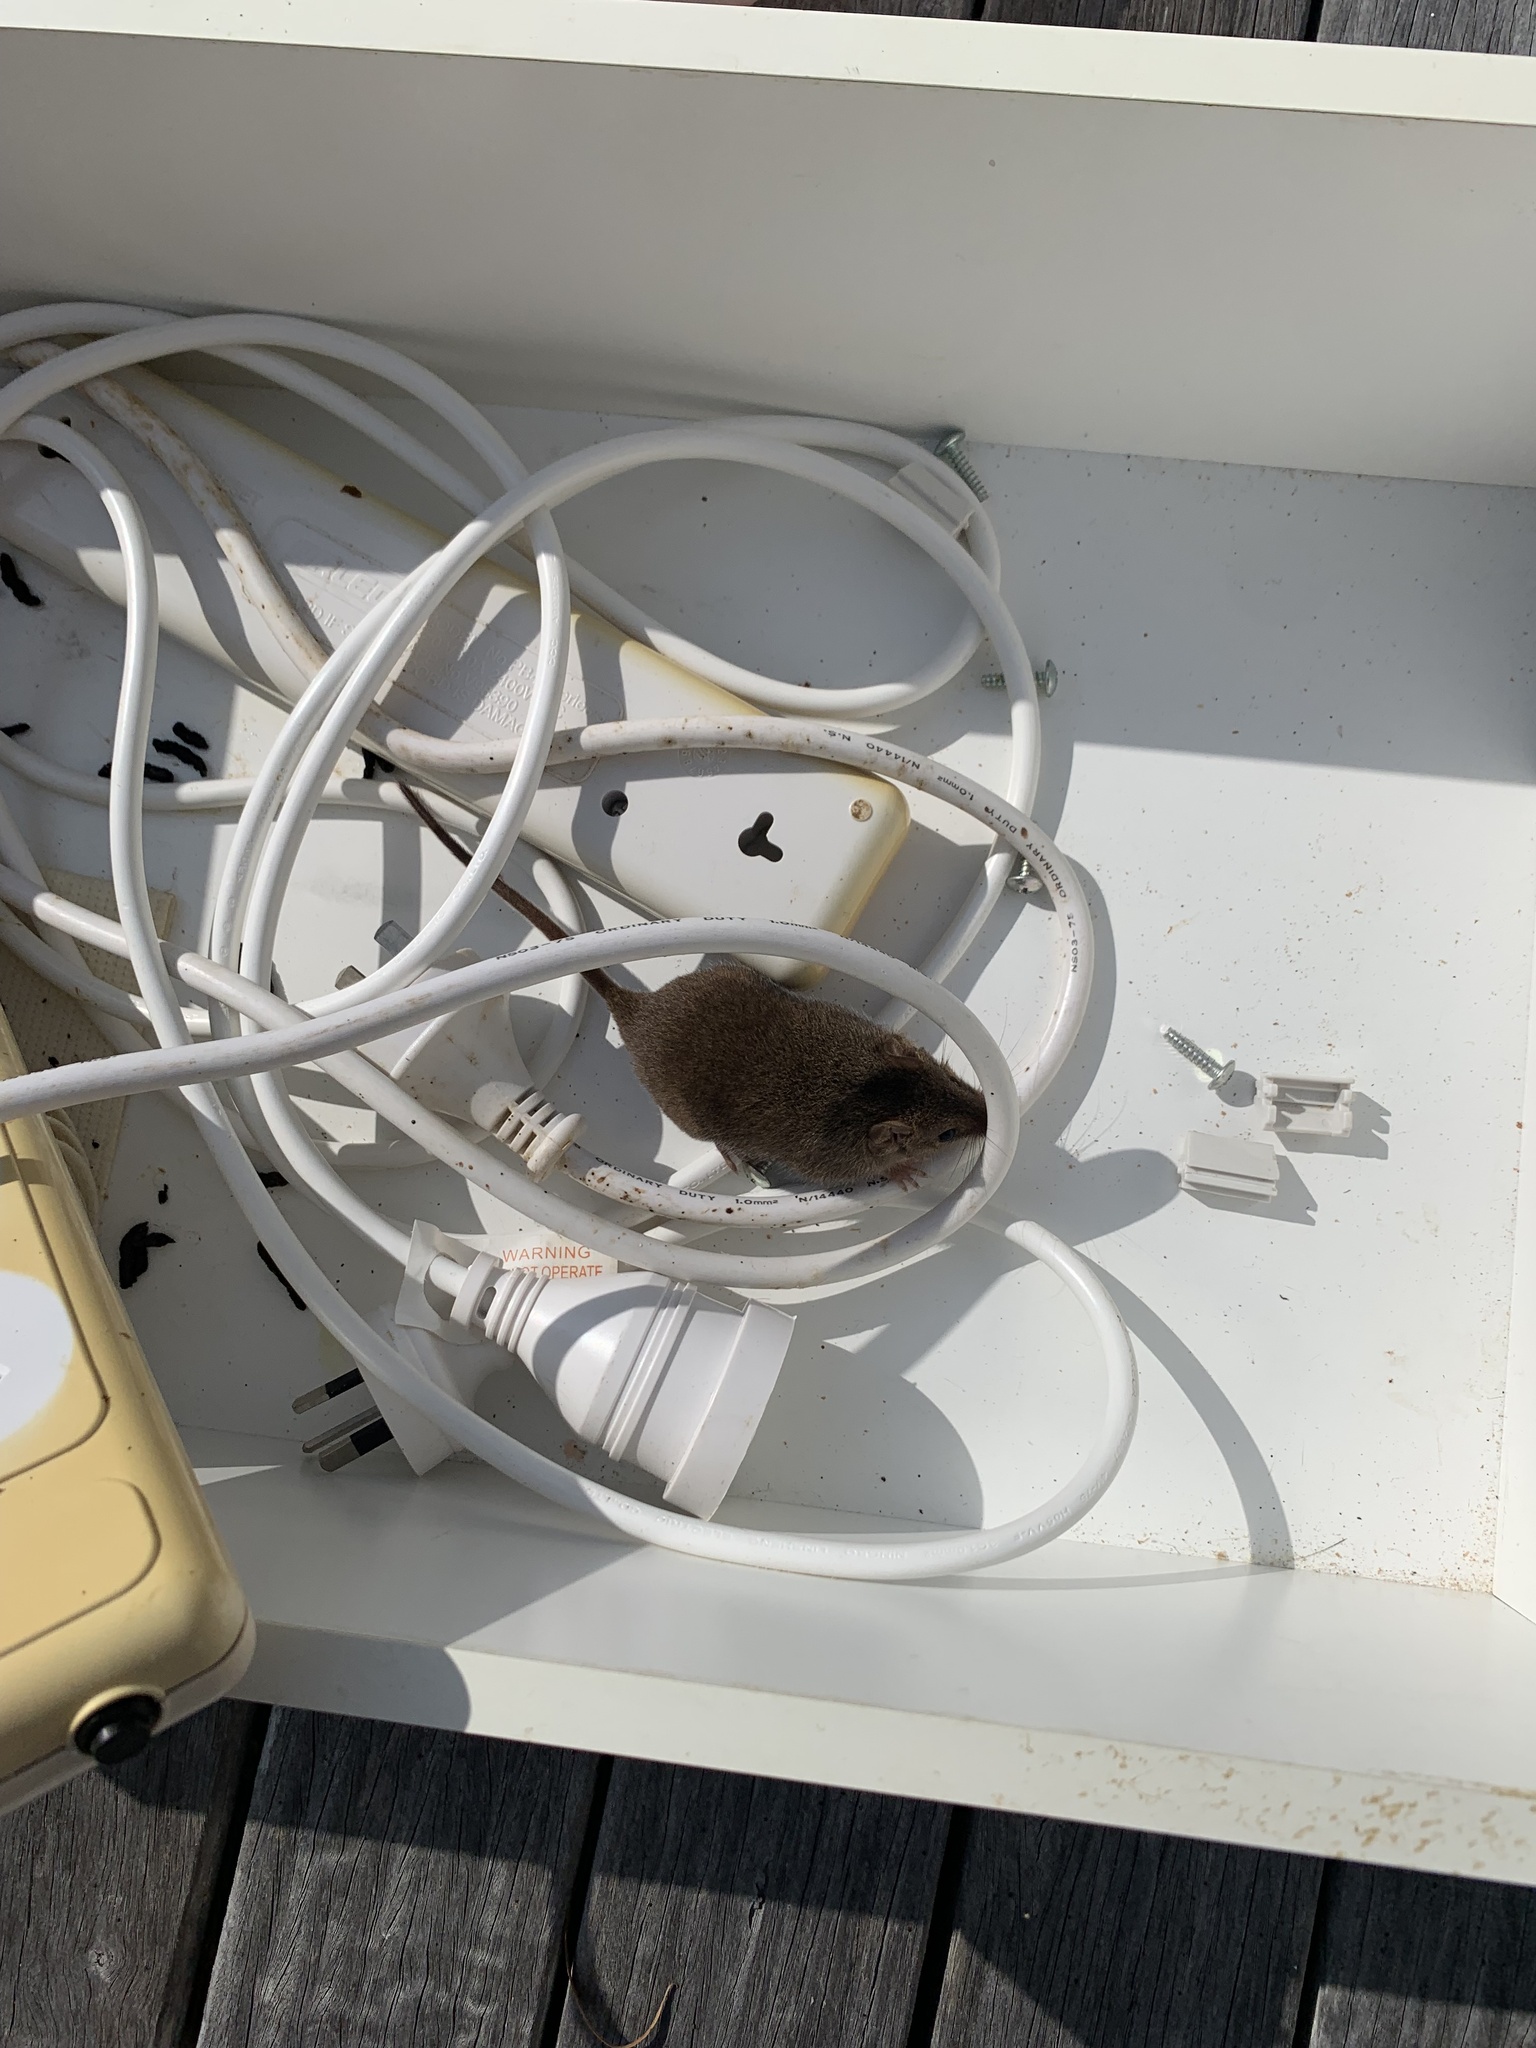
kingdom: Animalia
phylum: Chordata
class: Mammalia
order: Dasyuromorphia
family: Dasyuridae
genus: Antechinus
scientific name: Antechinus stuartii
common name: Brown antechinus
